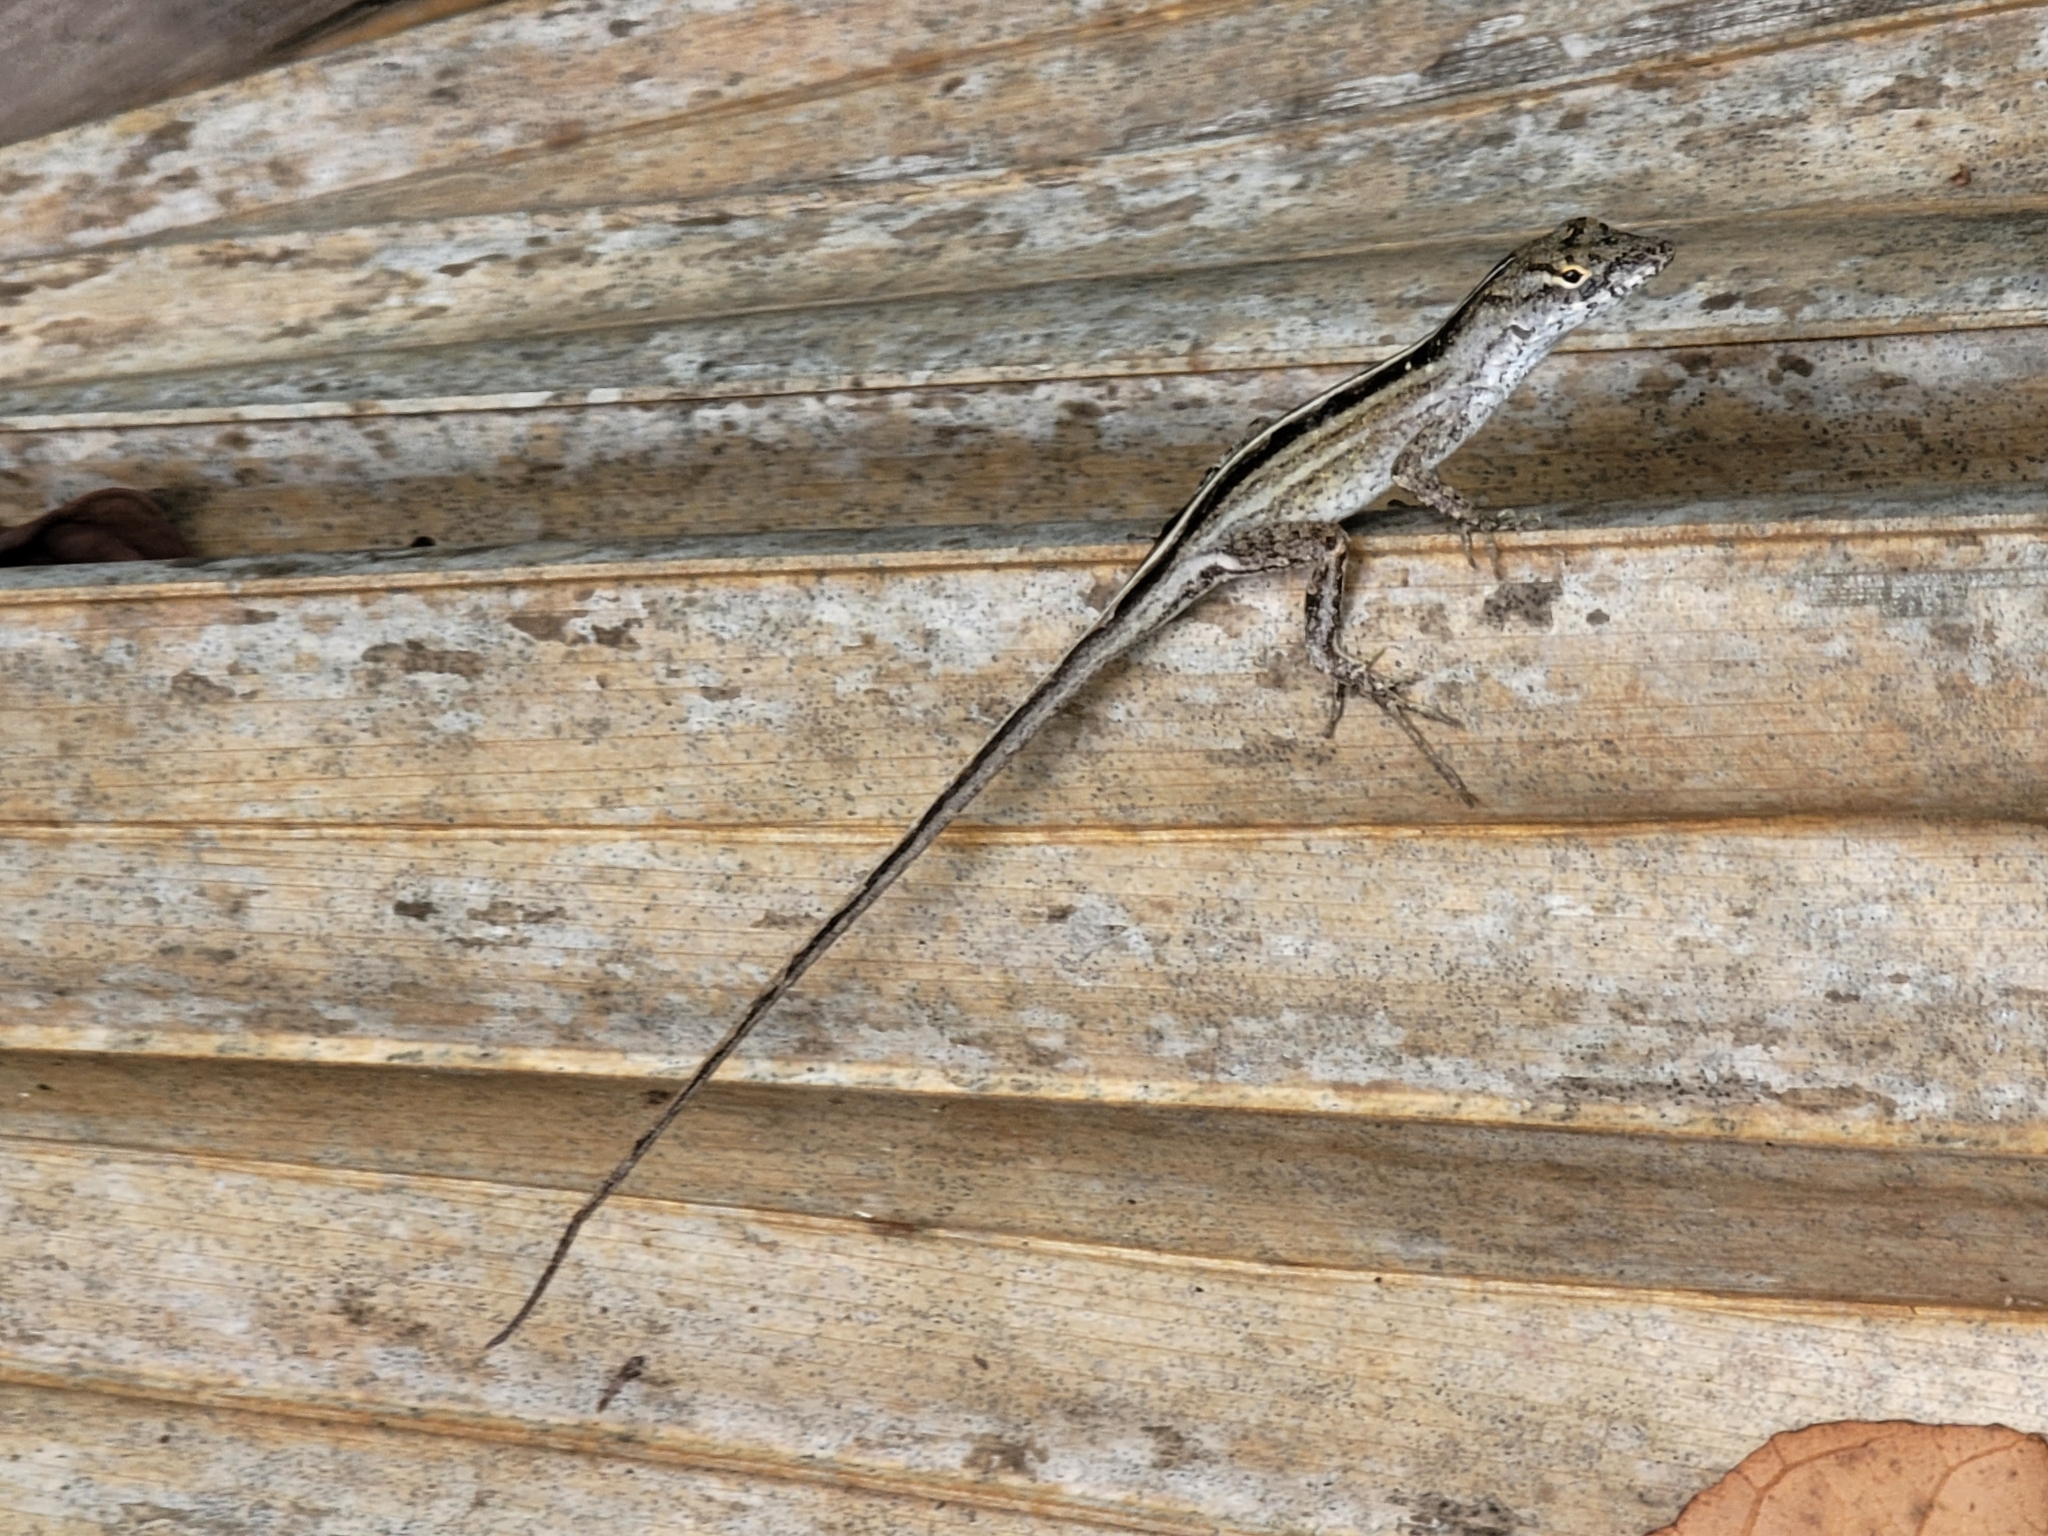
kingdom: Animalia
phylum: Chordata
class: Squamata
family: Dactyloidae
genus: Anolis
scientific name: Anolis sagrei
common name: Brown anole
